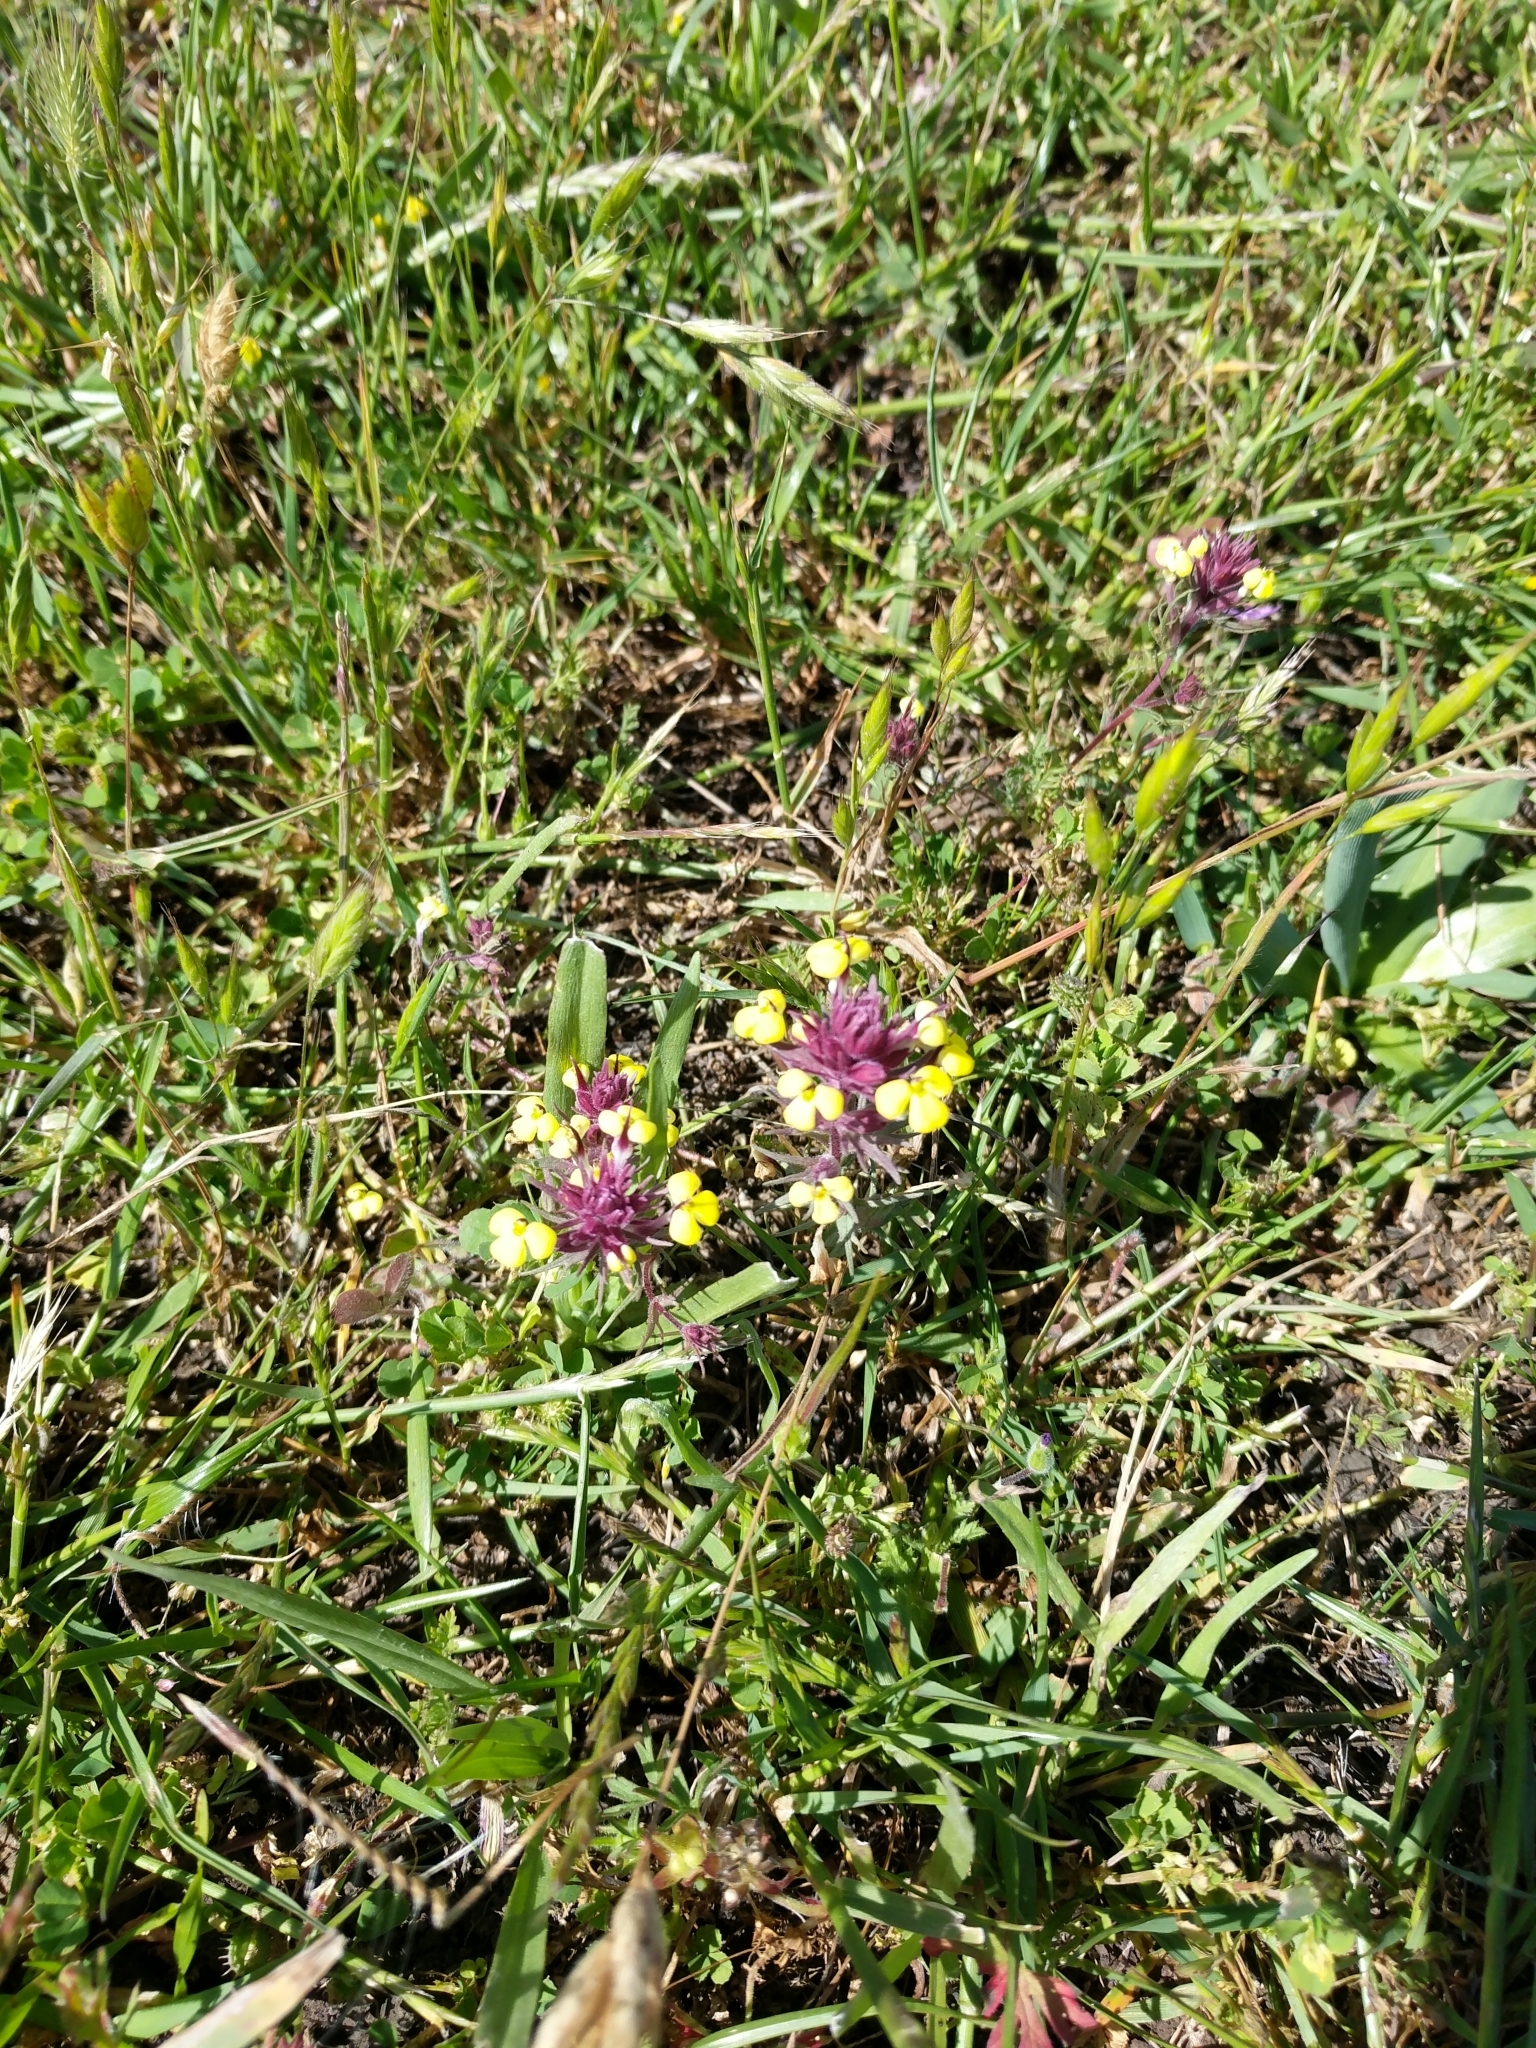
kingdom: Plantae
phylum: Tracheophyta
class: Magnoliopsida
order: Lamiales
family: Orobanchaceae
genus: Triphysaria
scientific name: Triphysaria eriantha
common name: Johnny-tuck
